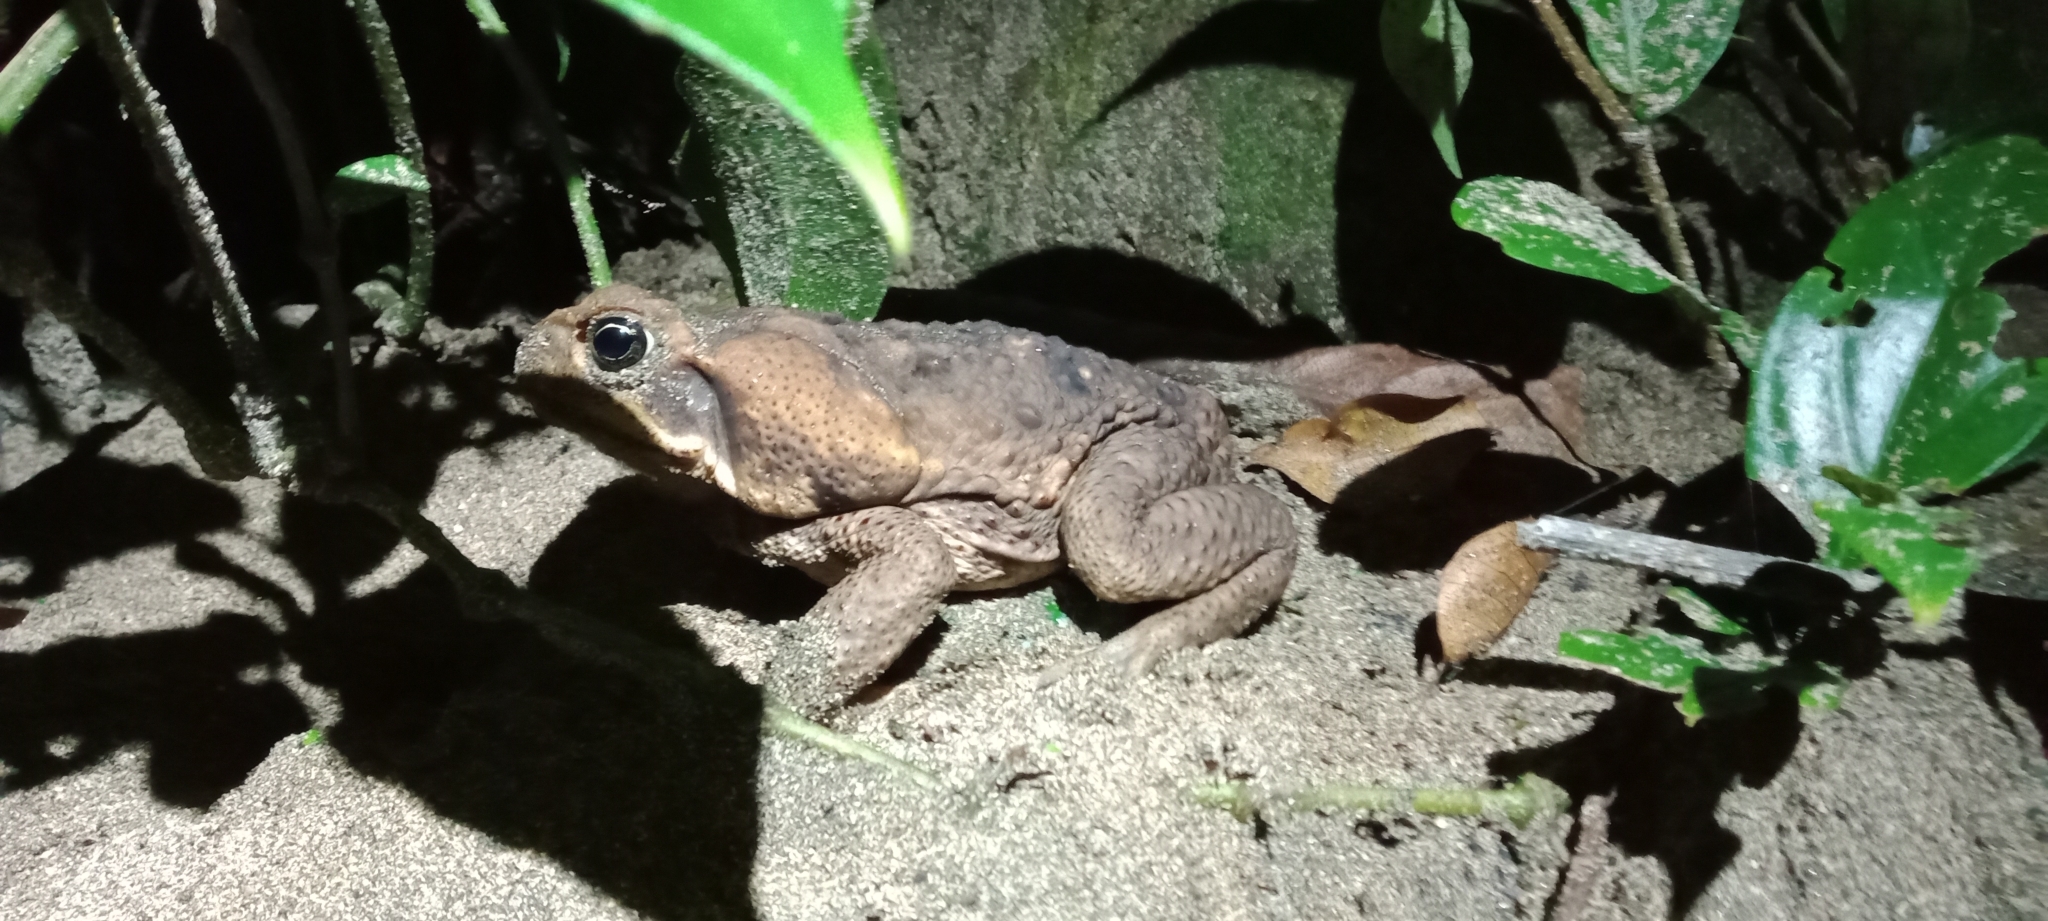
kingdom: Animalia
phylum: Chordata
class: Amphibia
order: Anura
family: Bufonidae
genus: Rhinella
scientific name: Rhinella horribilis
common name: Mesoamerican cane toad
